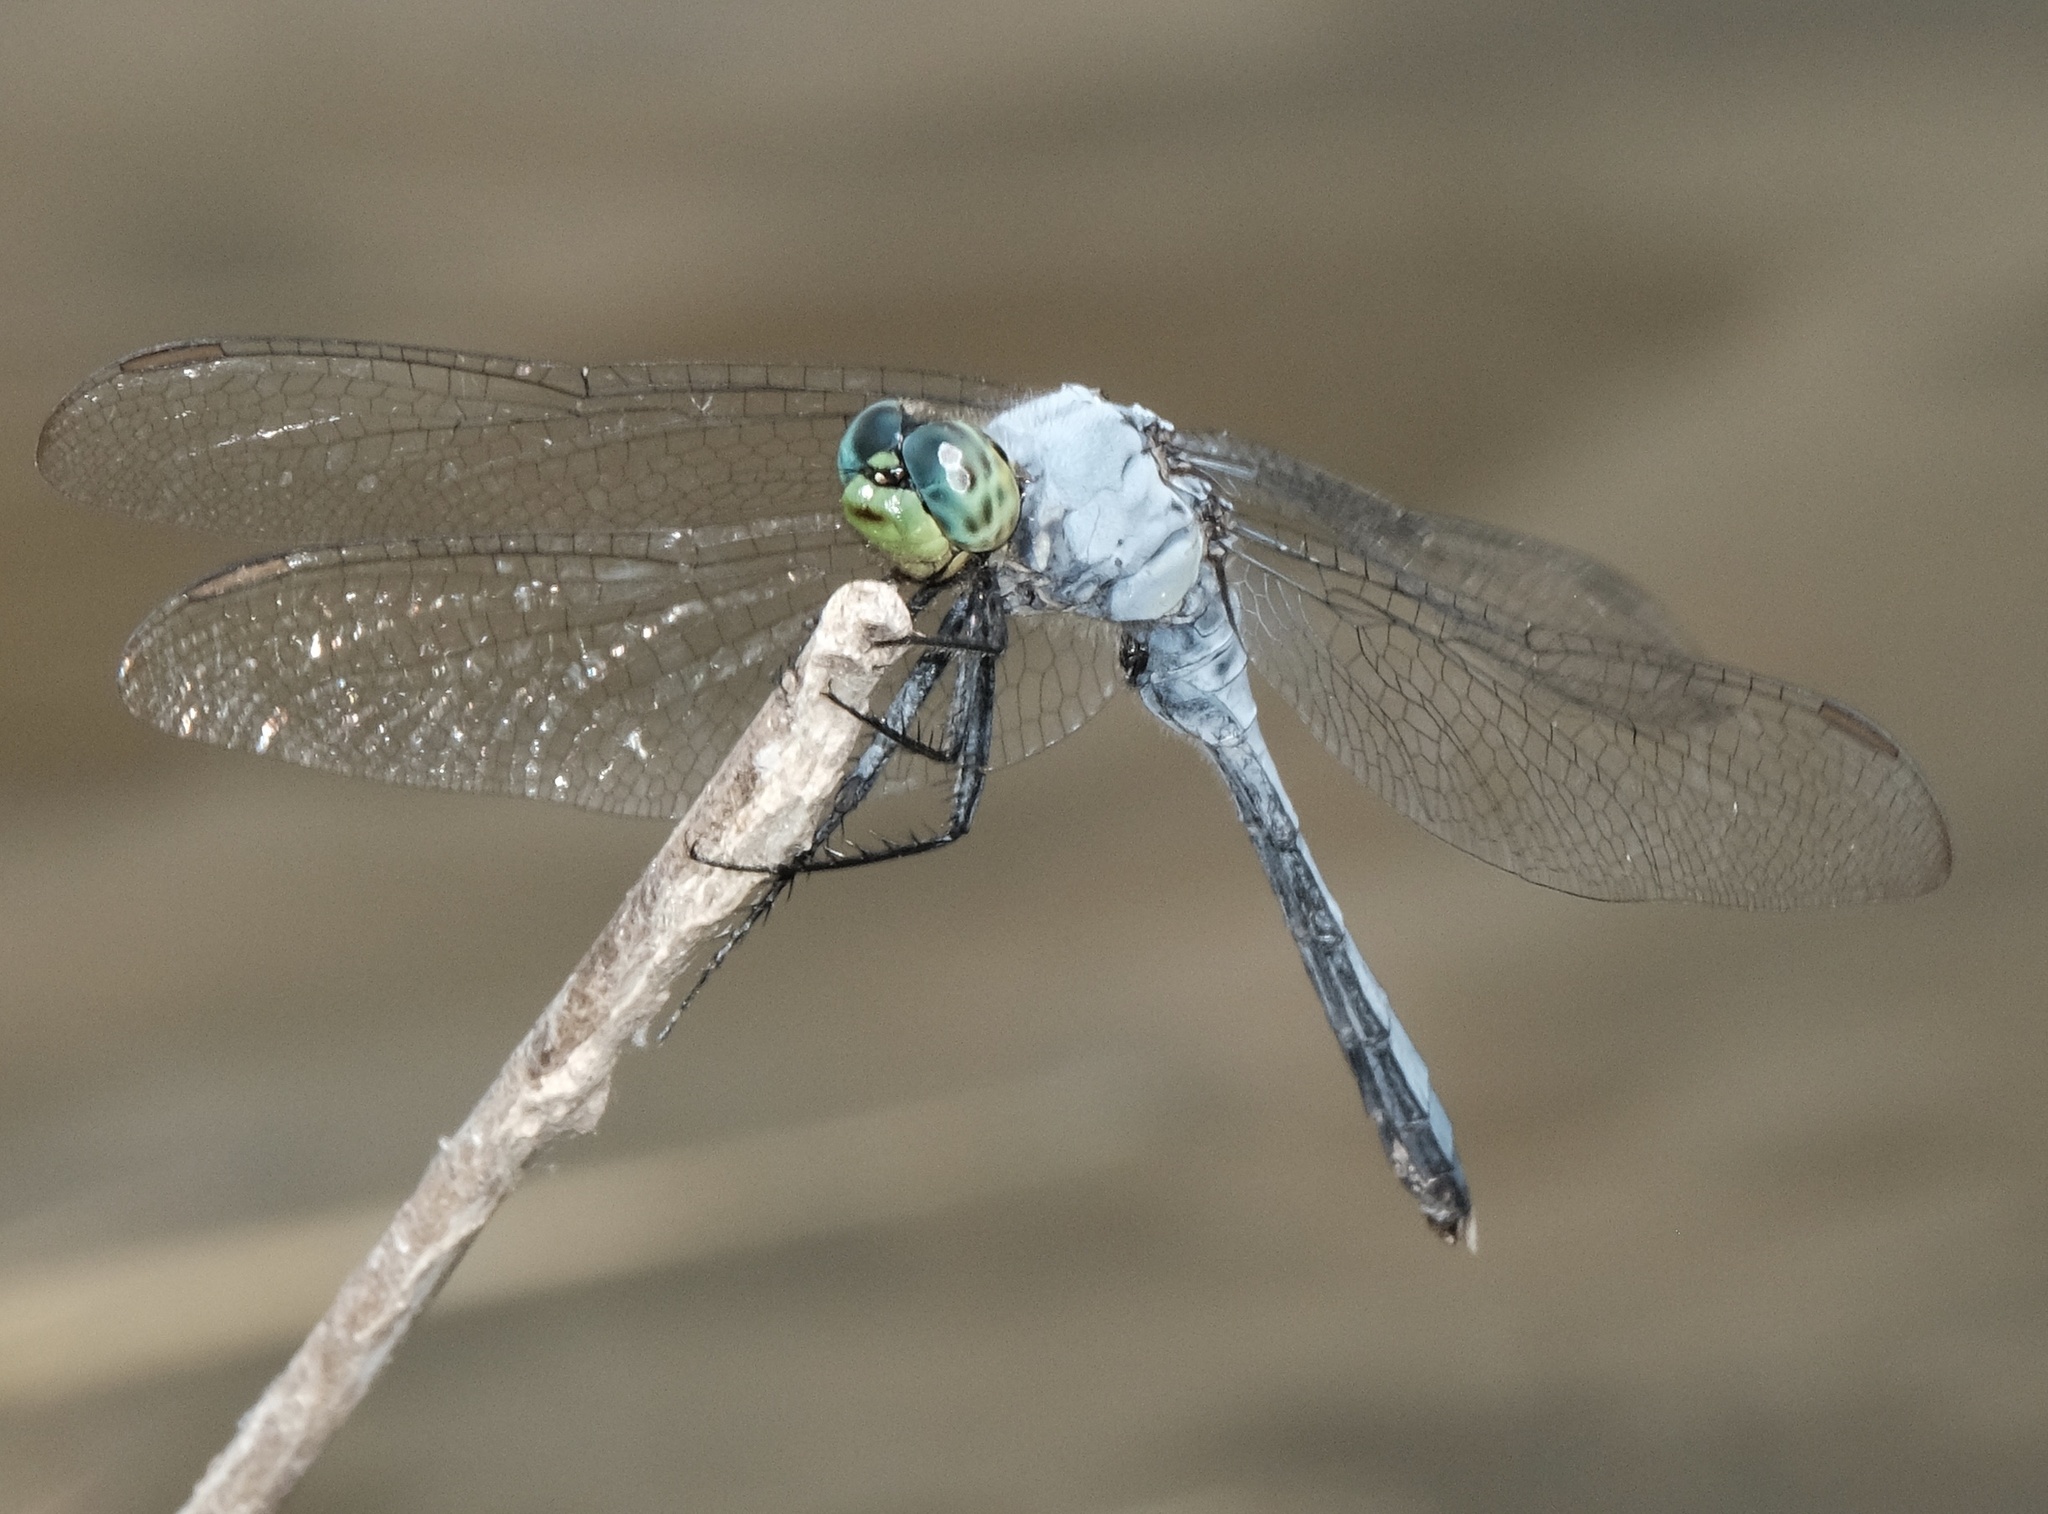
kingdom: Animalia
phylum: Arthropoda
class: Insecta
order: Odonata
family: Libellulidae
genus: Erythemis
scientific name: Erythemis simplicicollis
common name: Eastern pondhawk
